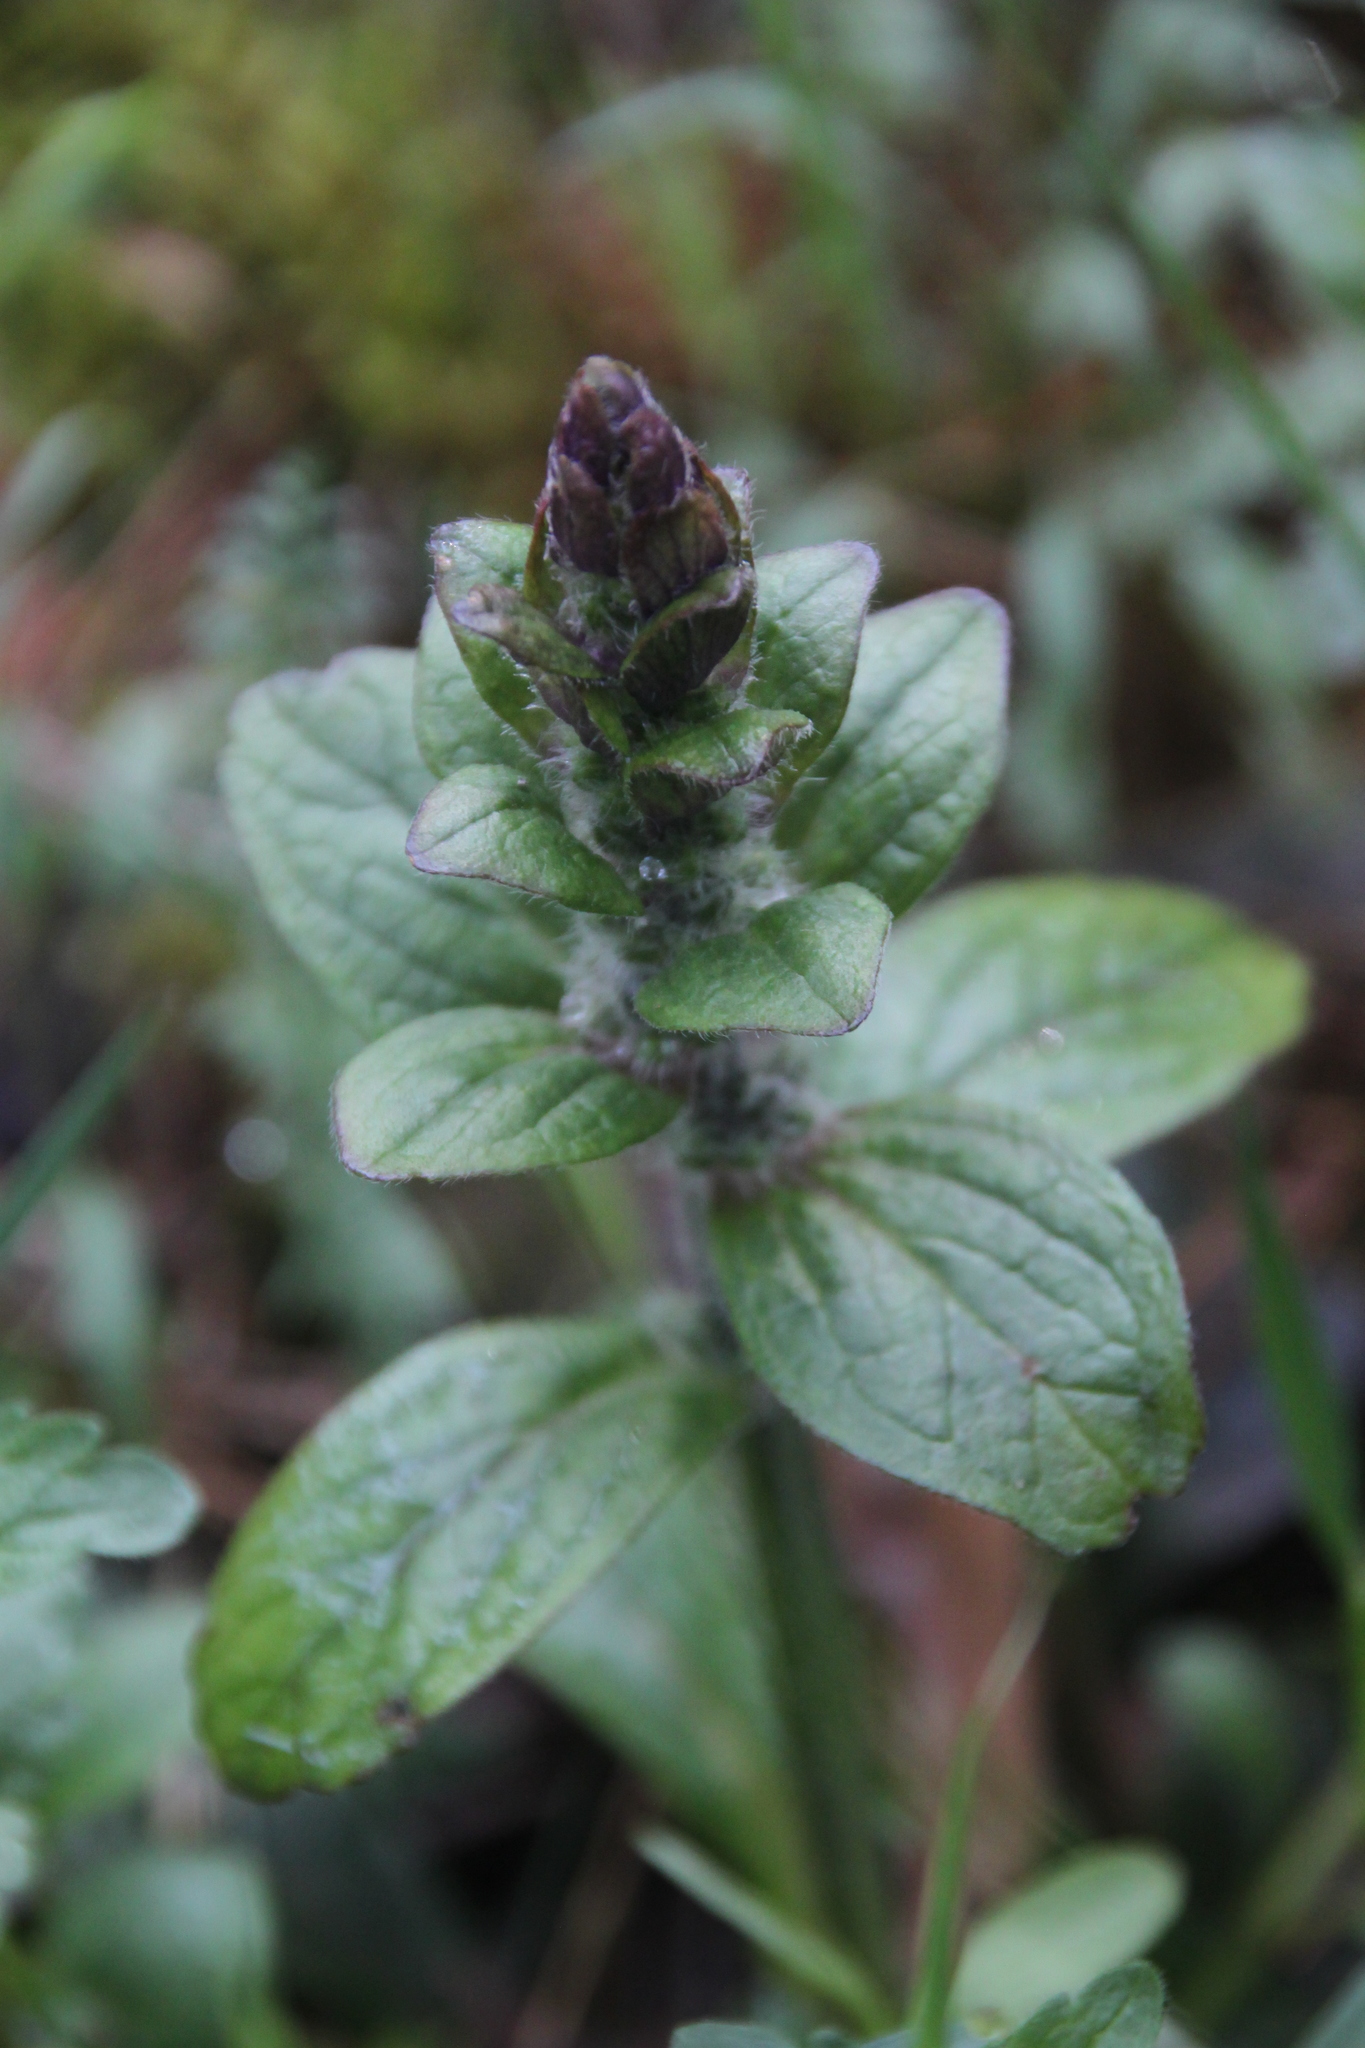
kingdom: Plantae
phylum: Tracheophyta
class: Magnoliopsida
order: Lamiales
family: Lamiaceae
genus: Ajuga
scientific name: Ajuga reptans
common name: Bugle
